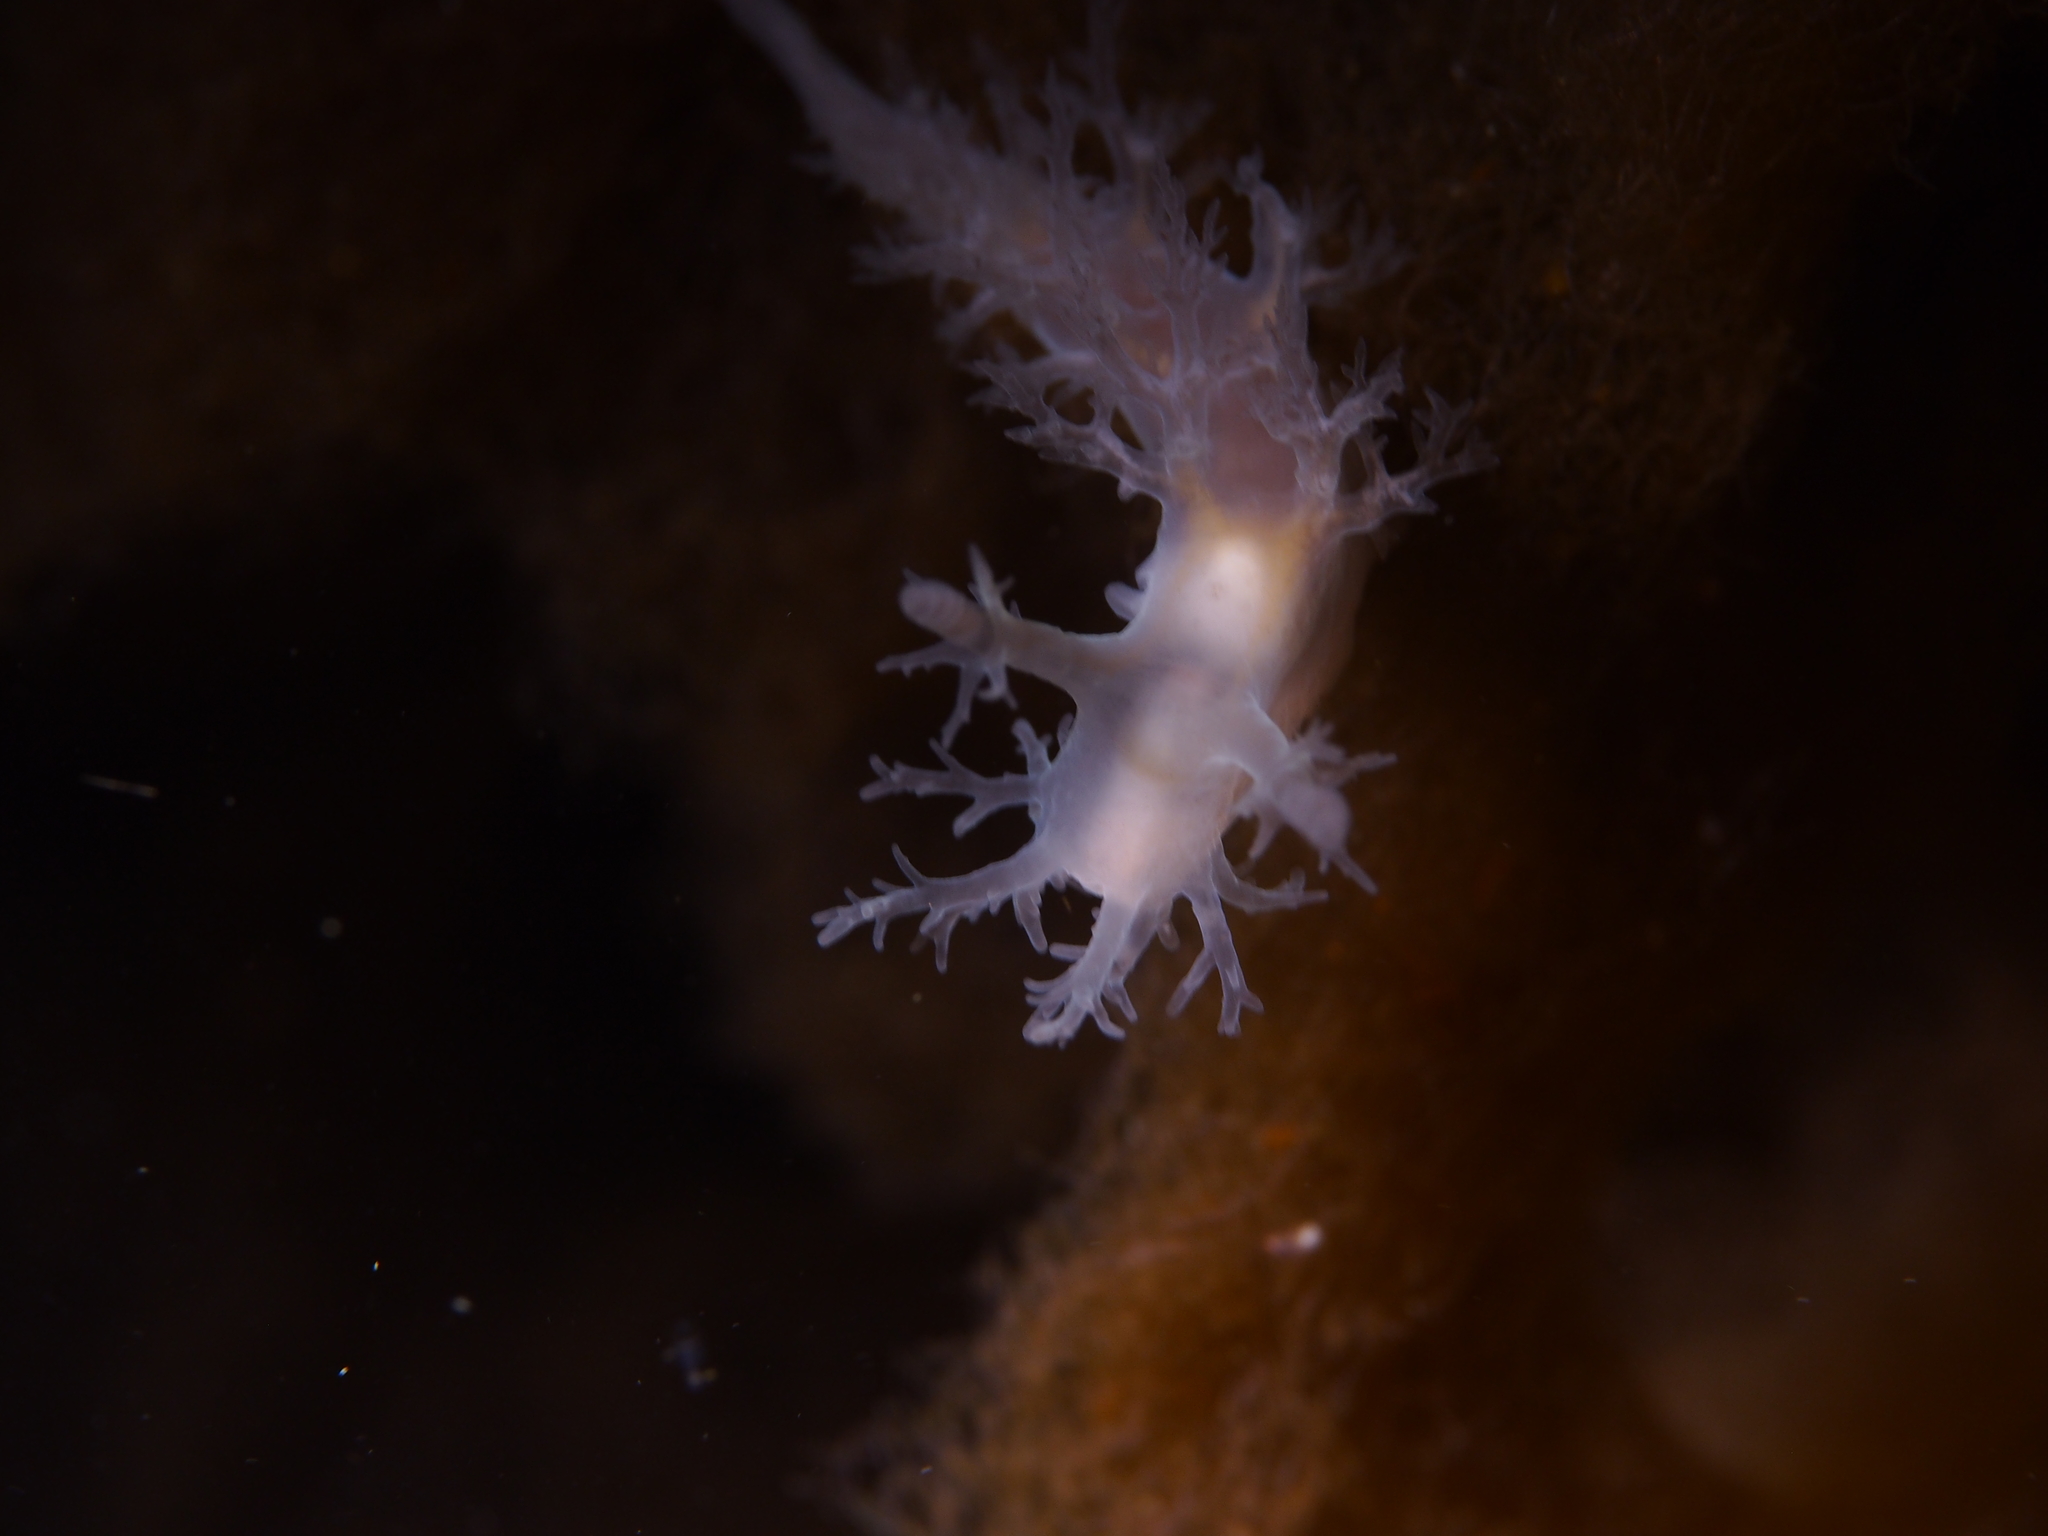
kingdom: Animalia
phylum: Mollusca
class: Gastropoda
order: Nudibranchia
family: Dendronotidae
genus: Dendronotus
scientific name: Dendronotus frondosus
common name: Bushy-backed nudibranch
